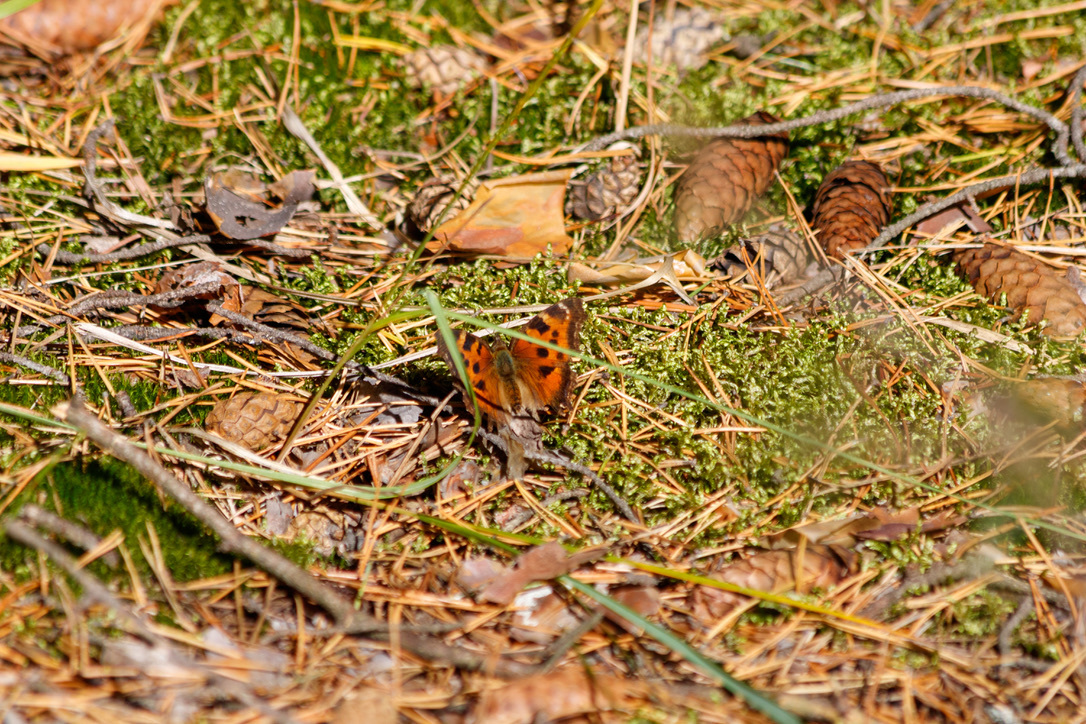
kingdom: Animalia
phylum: Arthropoda
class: Insecta
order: Lepidoptera
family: Nymphalidae
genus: Nymphalis
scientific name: Nymphalis xanthomelas
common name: Scarce tortoiseshell
